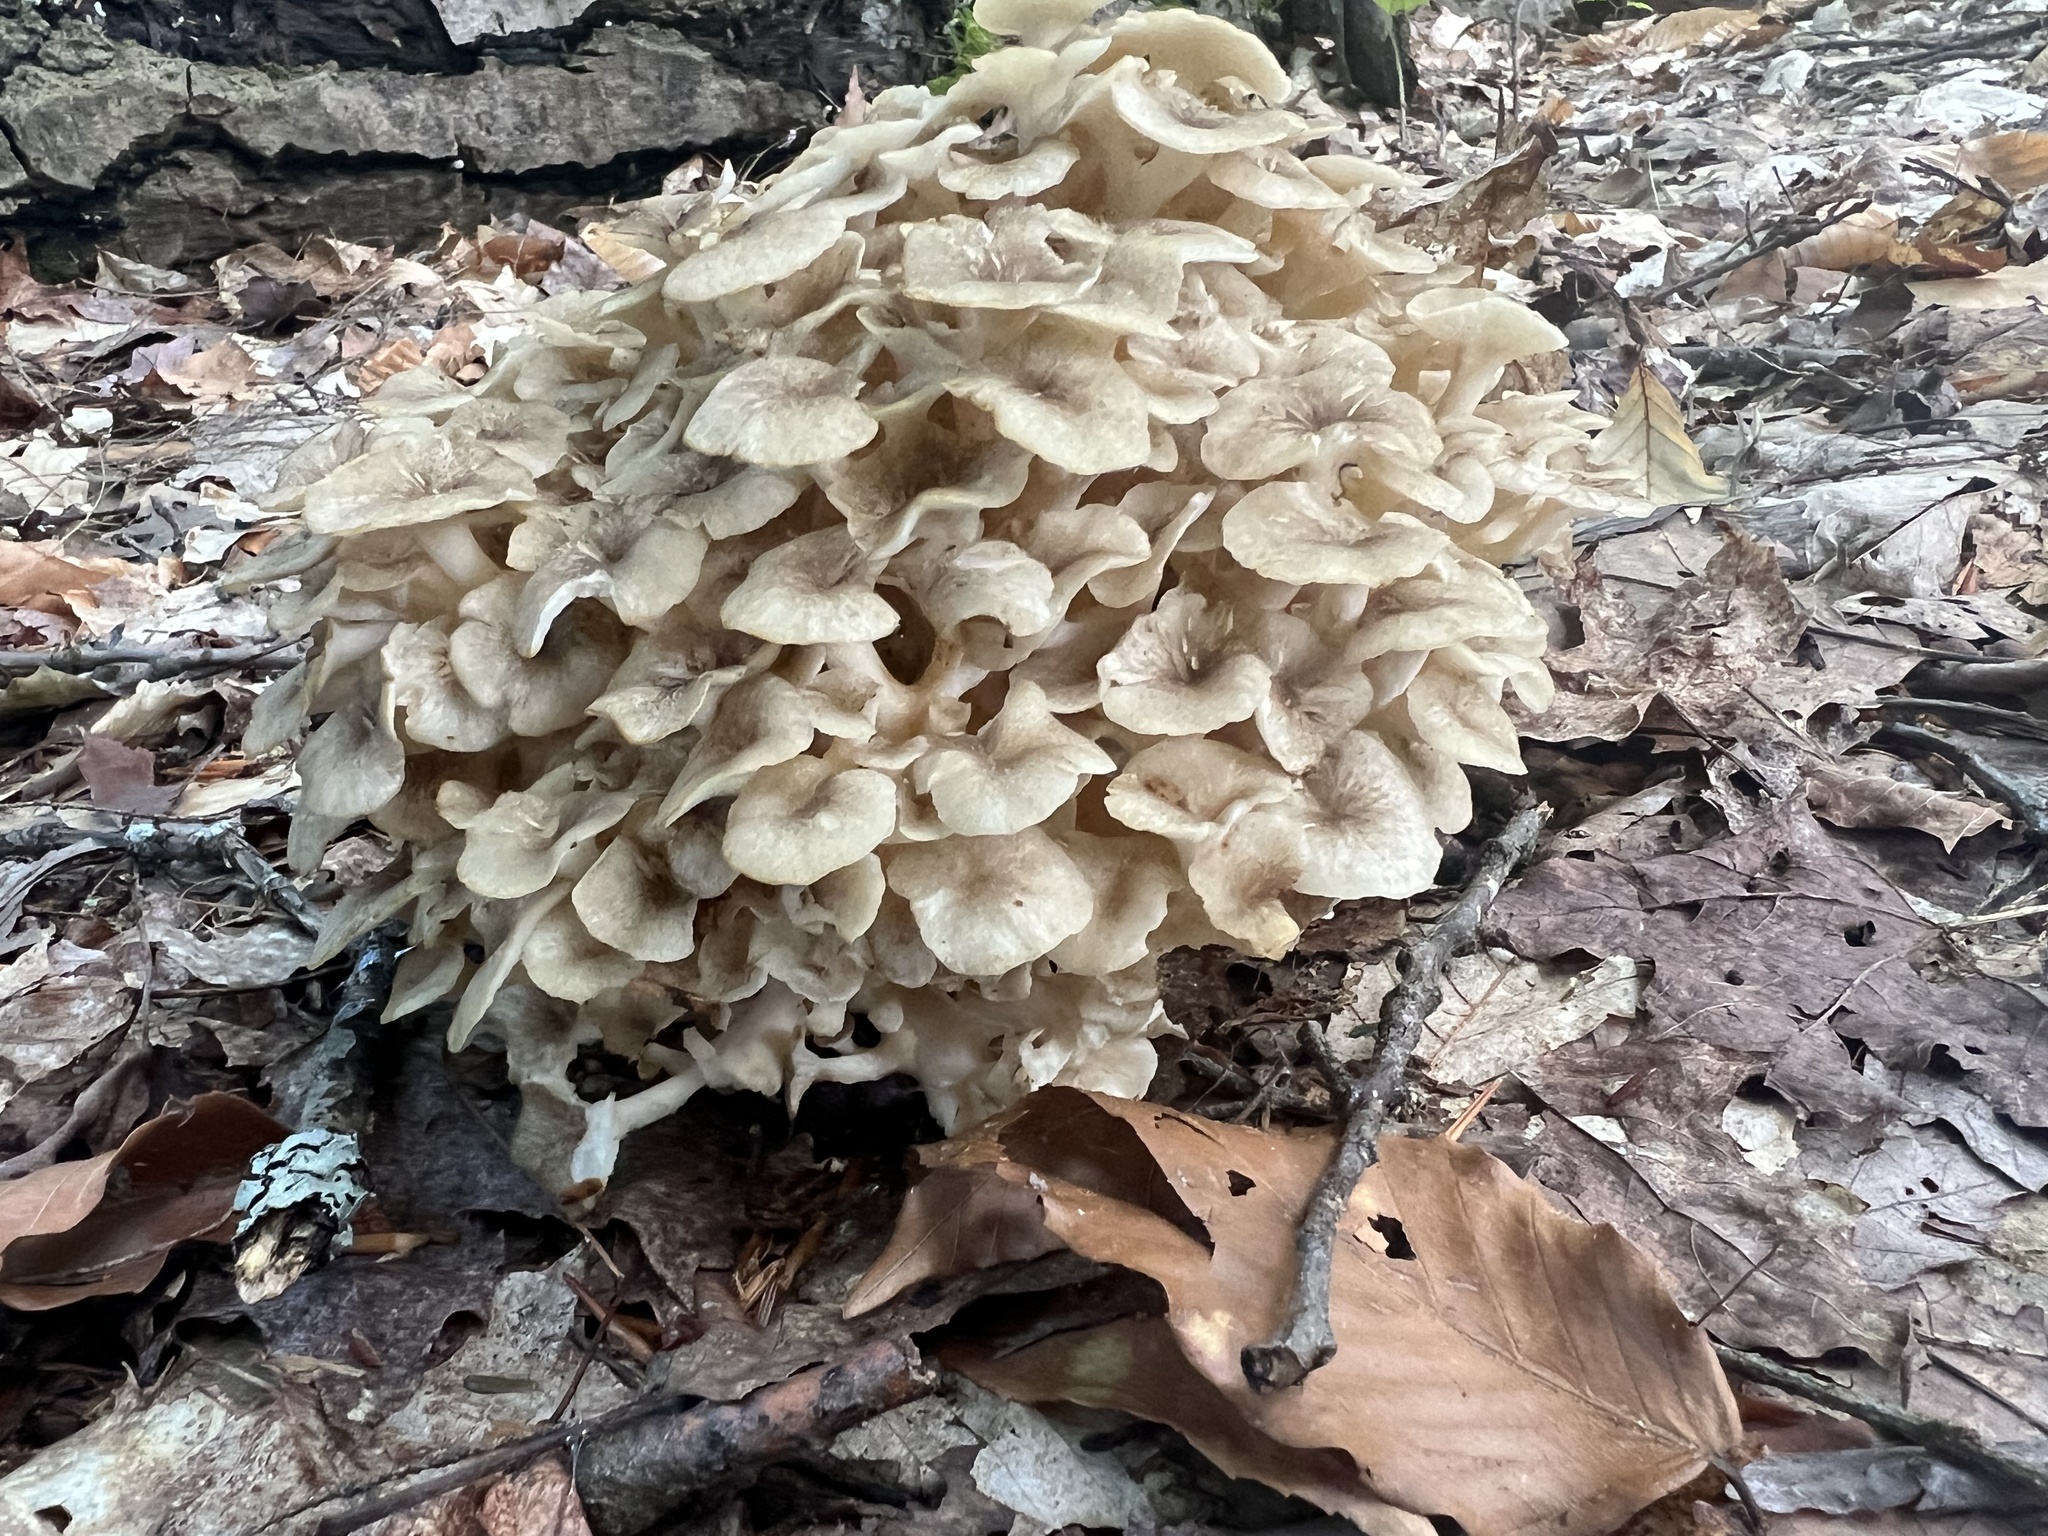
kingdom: Fungi
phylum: Basidiomycota
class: Agaricomycetes
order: Polyporales
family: Polyporaceae
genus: Polyporus
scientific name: Polyporus umbellatus
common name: Umbrella polypore
